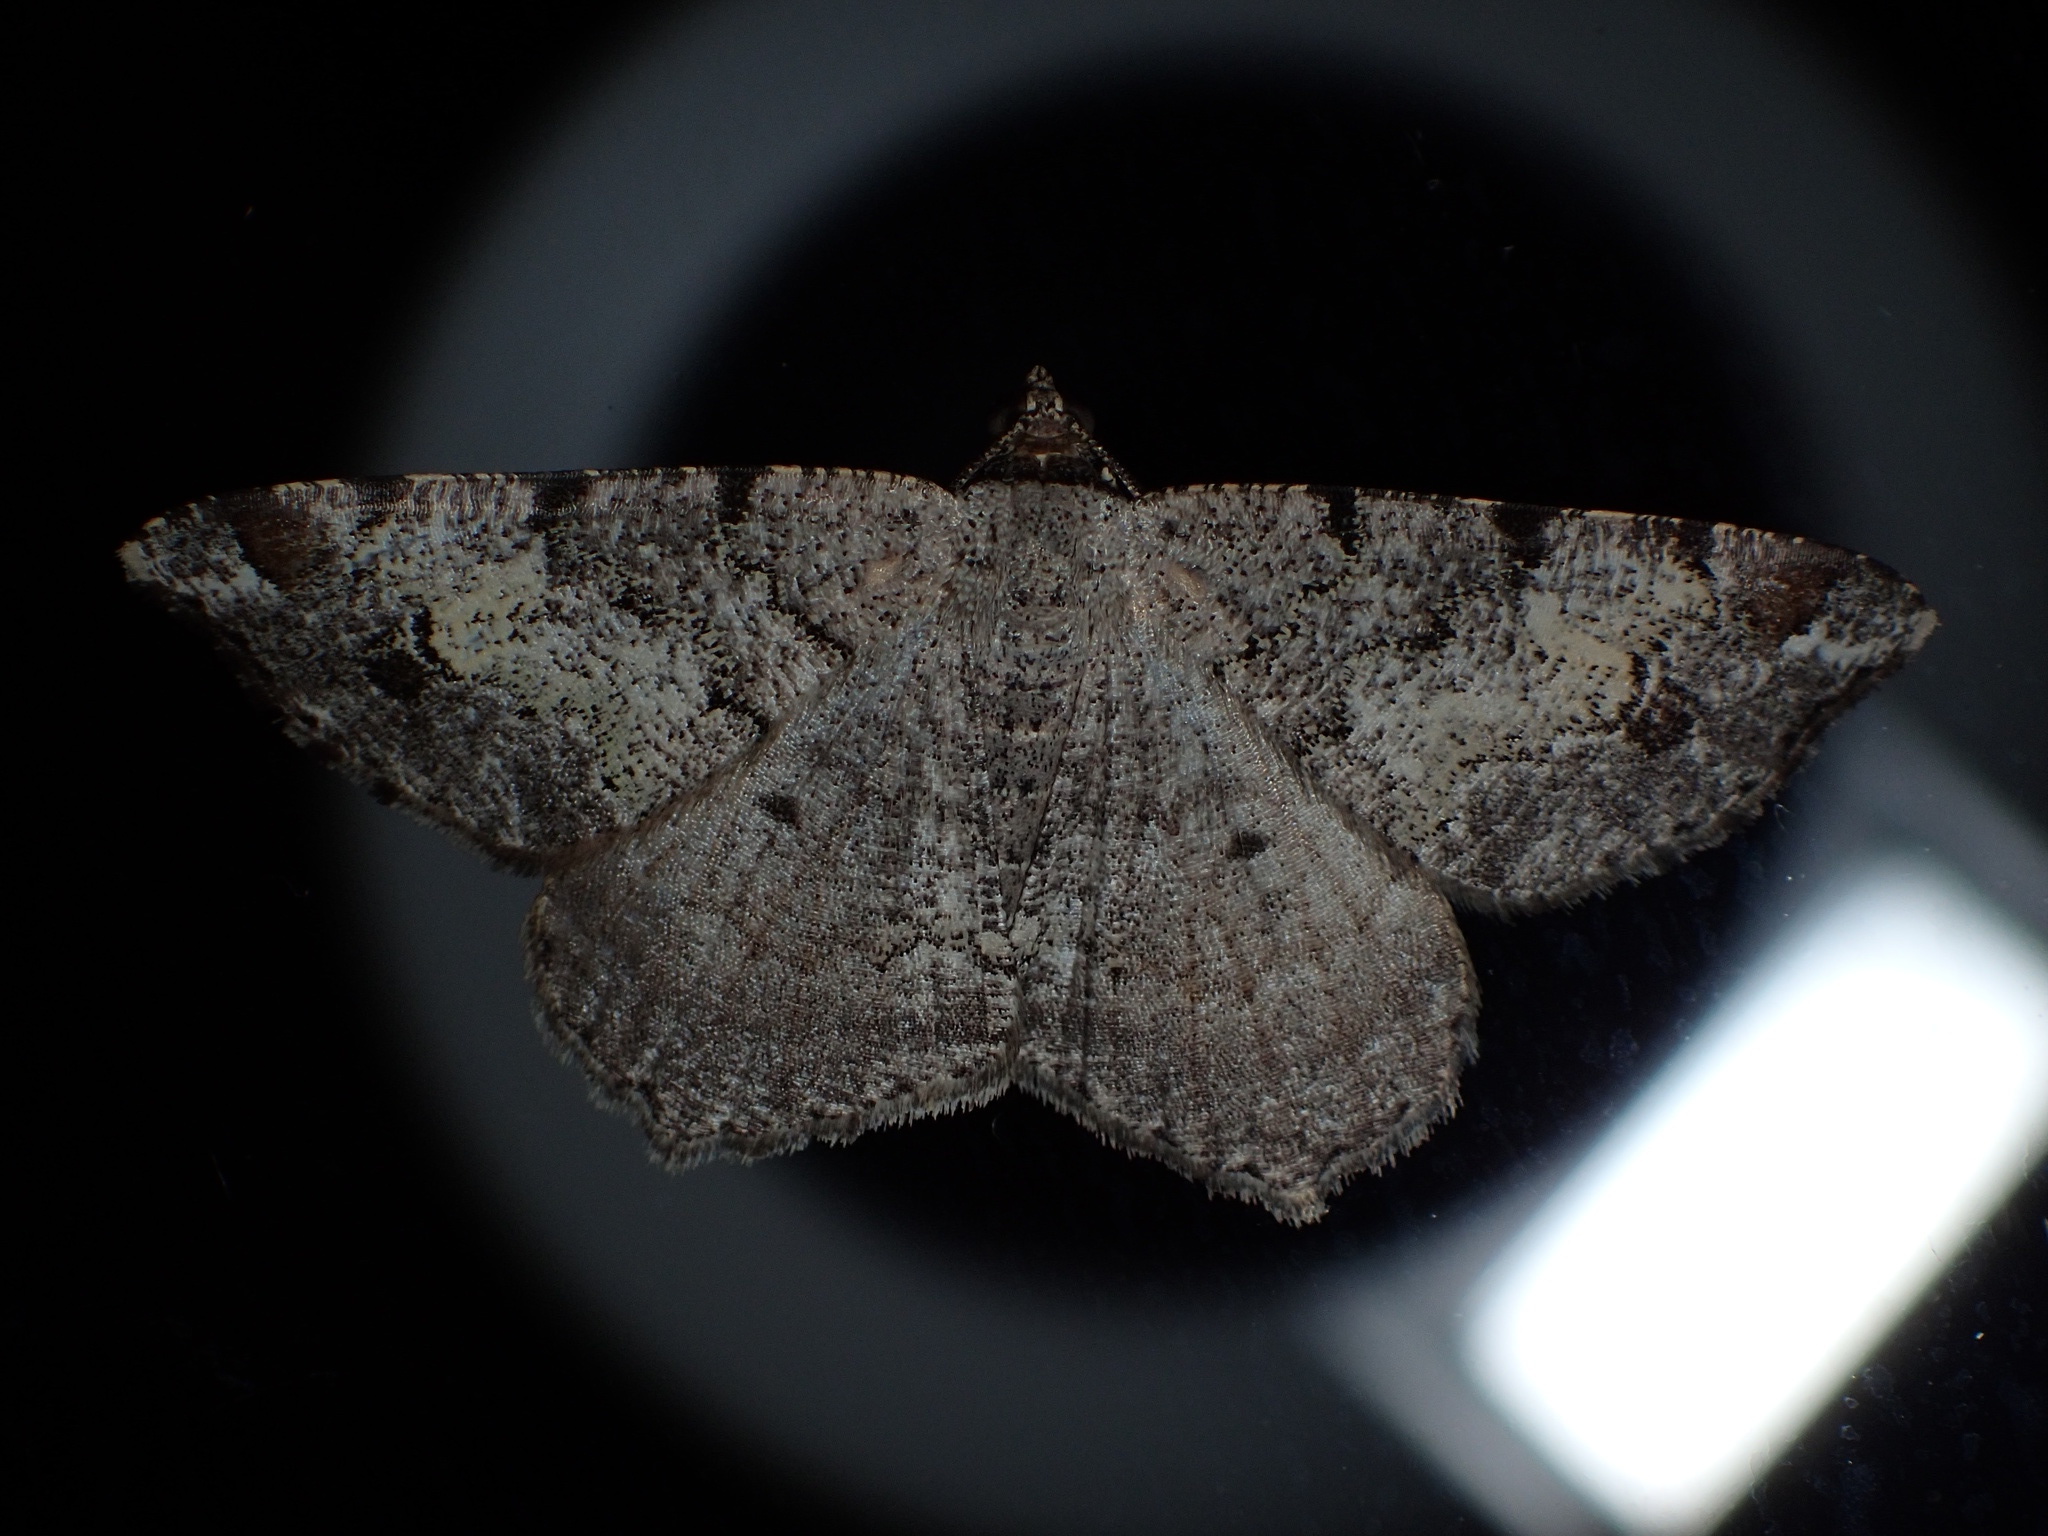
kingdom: Animalia
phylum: Arthropoda
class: Insecta
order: Lepidoptera
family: Geometridae
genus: Macaria
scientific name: Macaria granitata
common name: Granite moth
